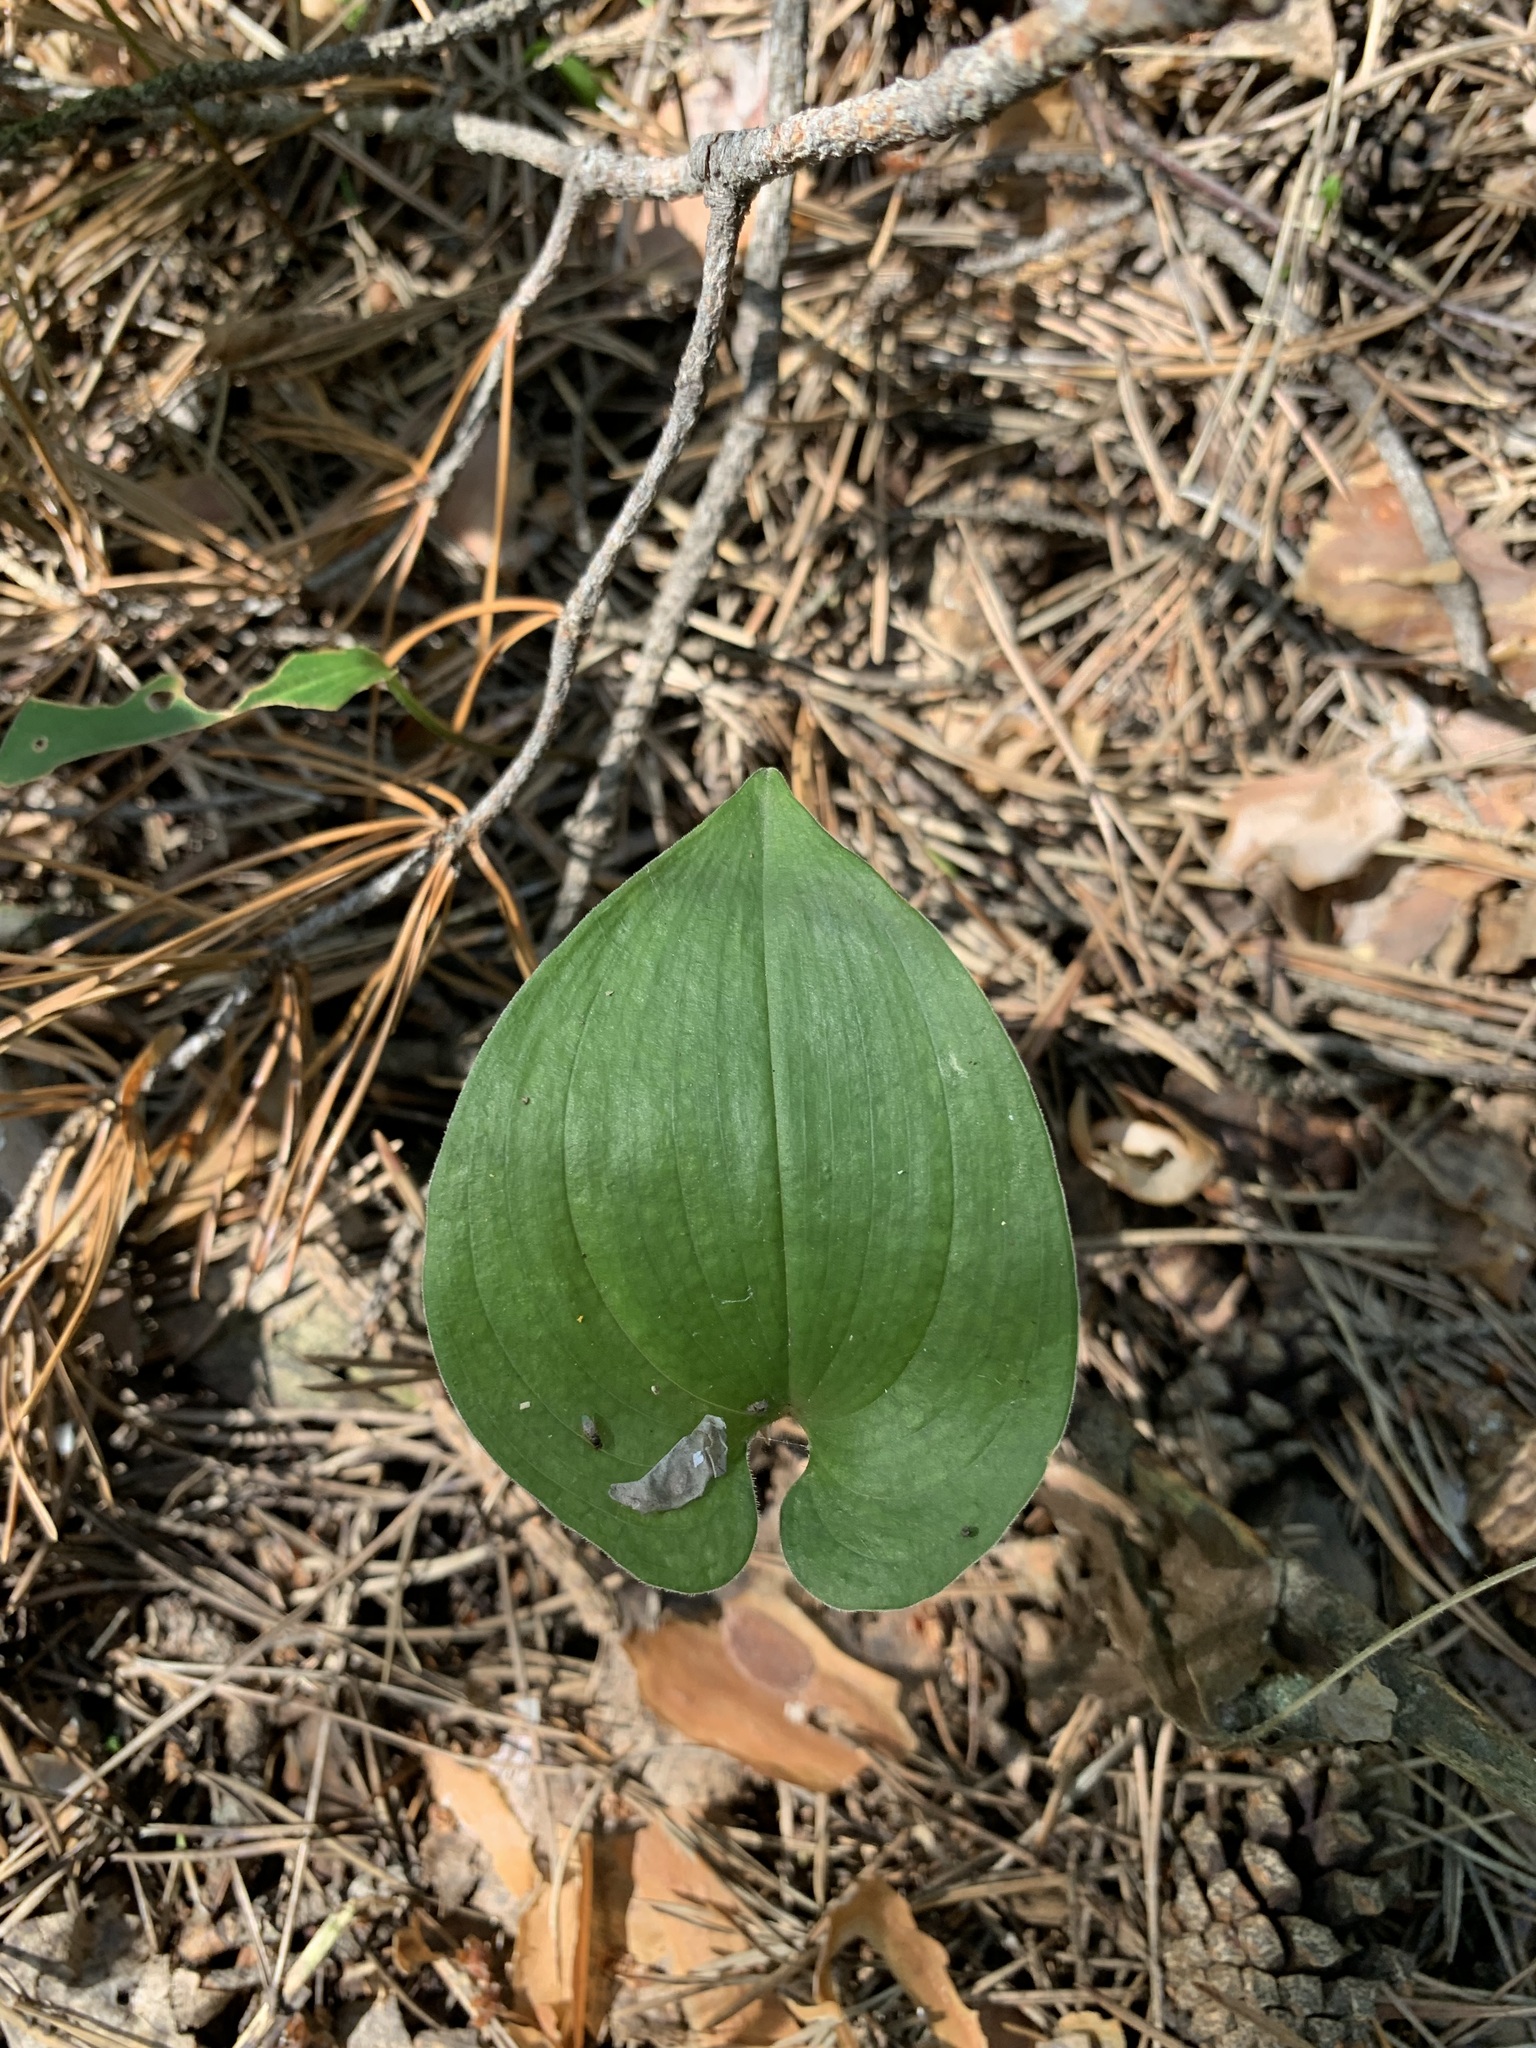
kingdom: Plantae
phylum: Tracheophyta
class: Liliopsida
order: Asparagales
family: Asparagaceae
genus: Maianthemum
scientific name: Maianthemum bifolium
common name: May lily
